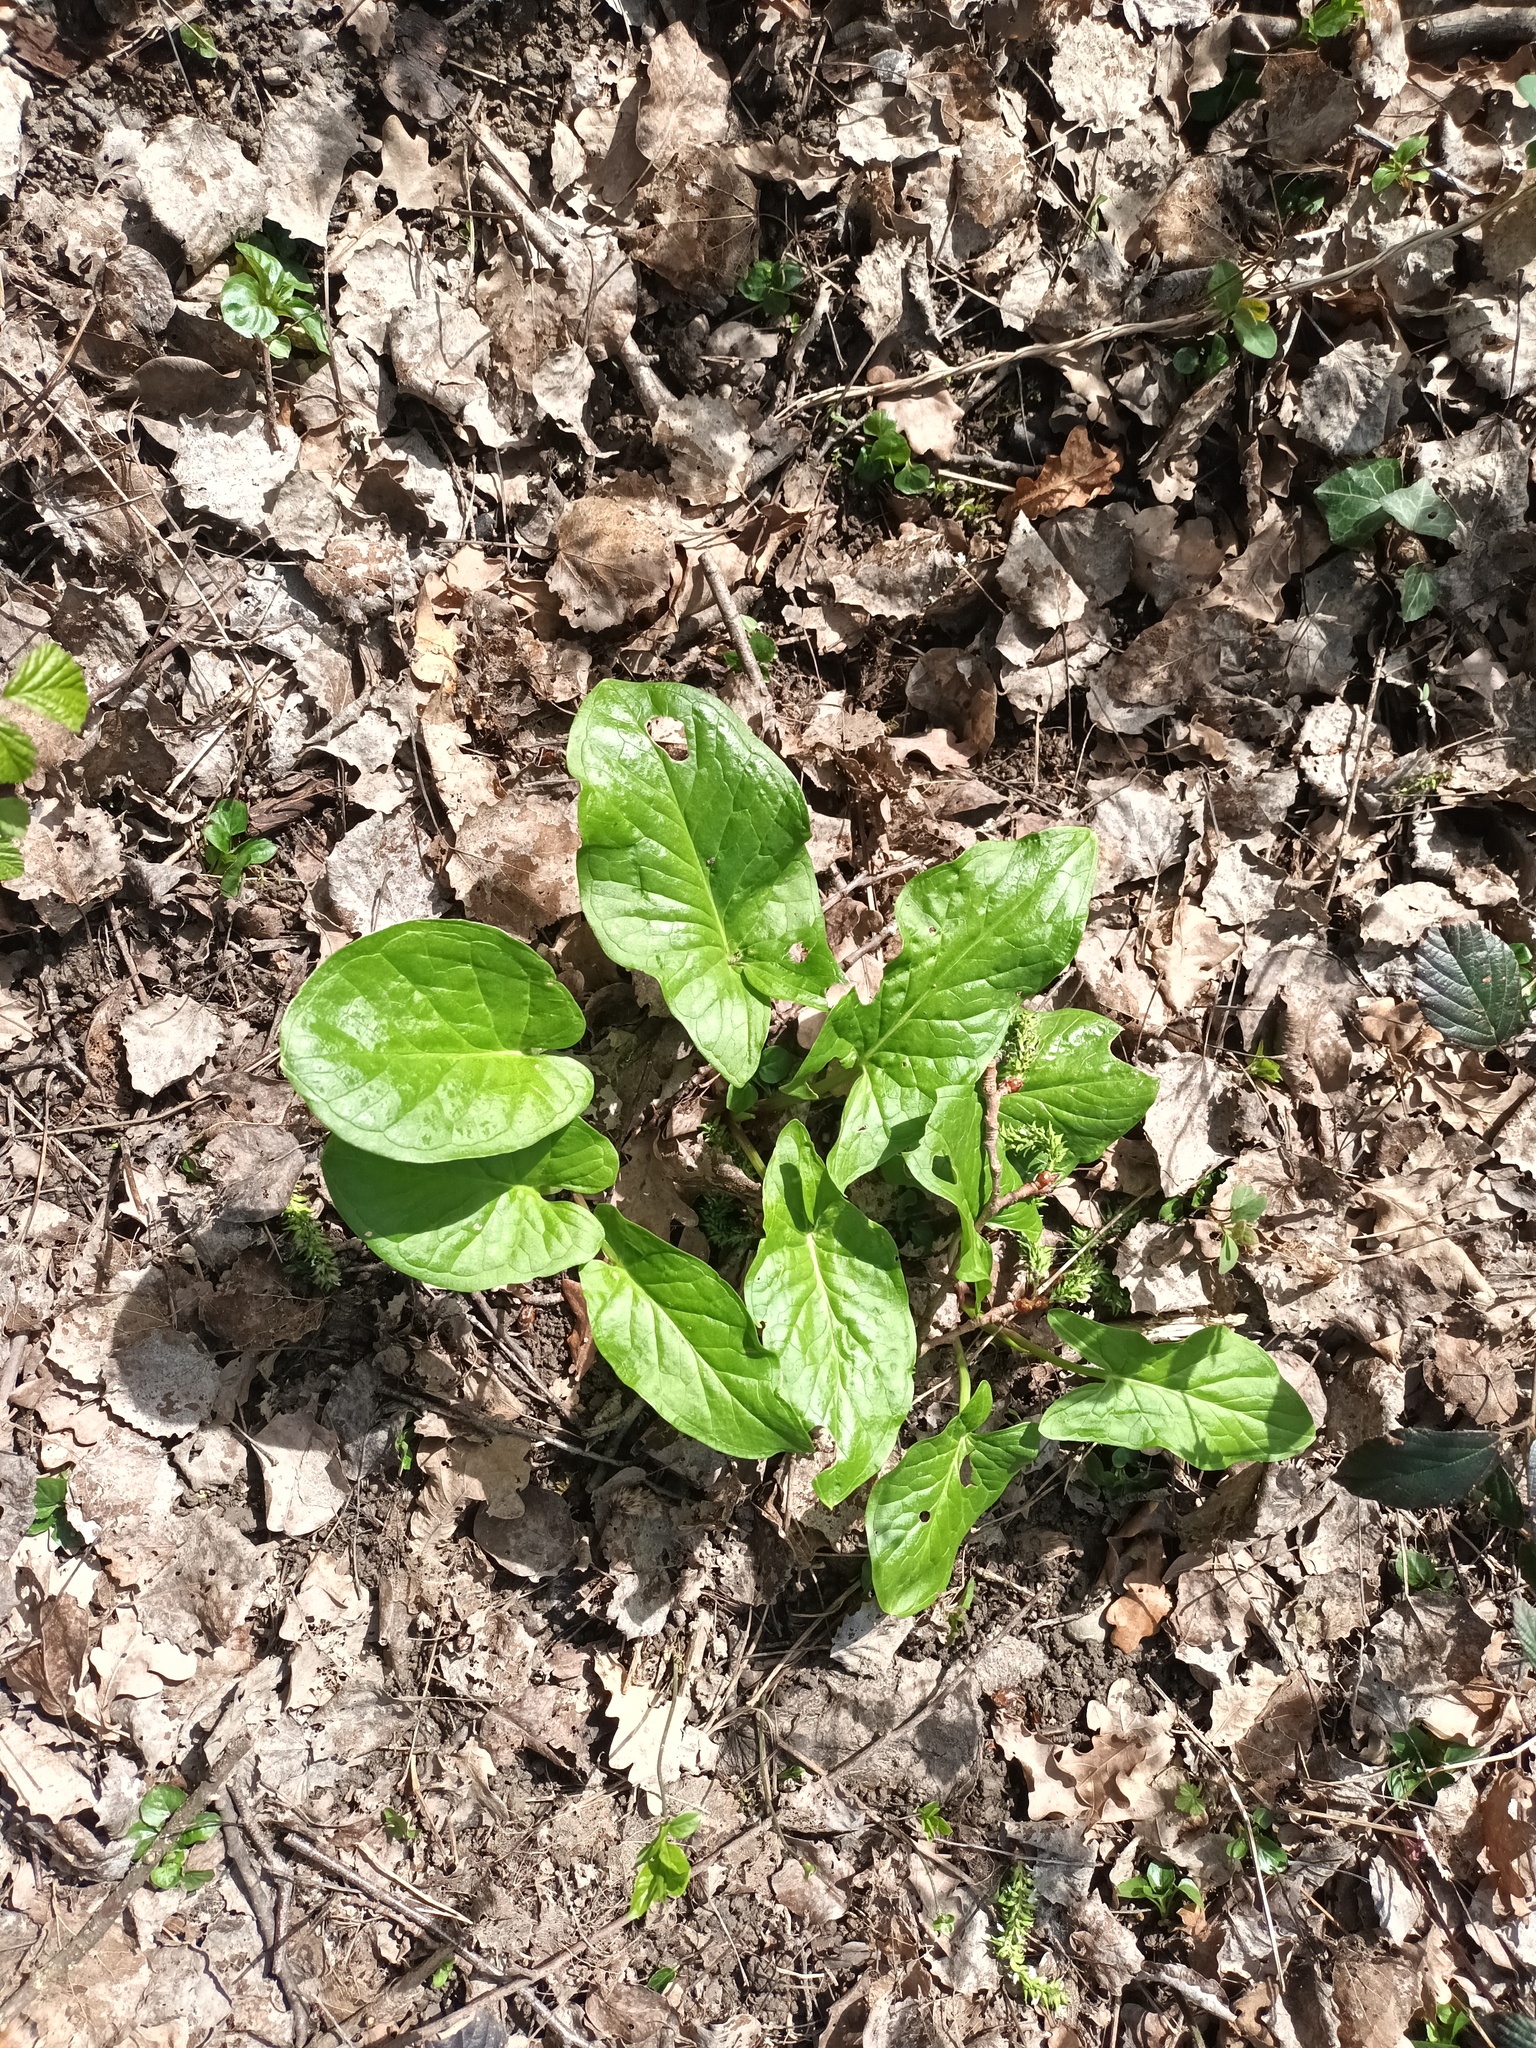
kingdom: Plantae
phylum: Tracheophyta
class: Liliopsida
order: Alismatales
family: Araceae
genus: Arum
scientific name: Arum maculatum
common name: Lords-and-ladies
